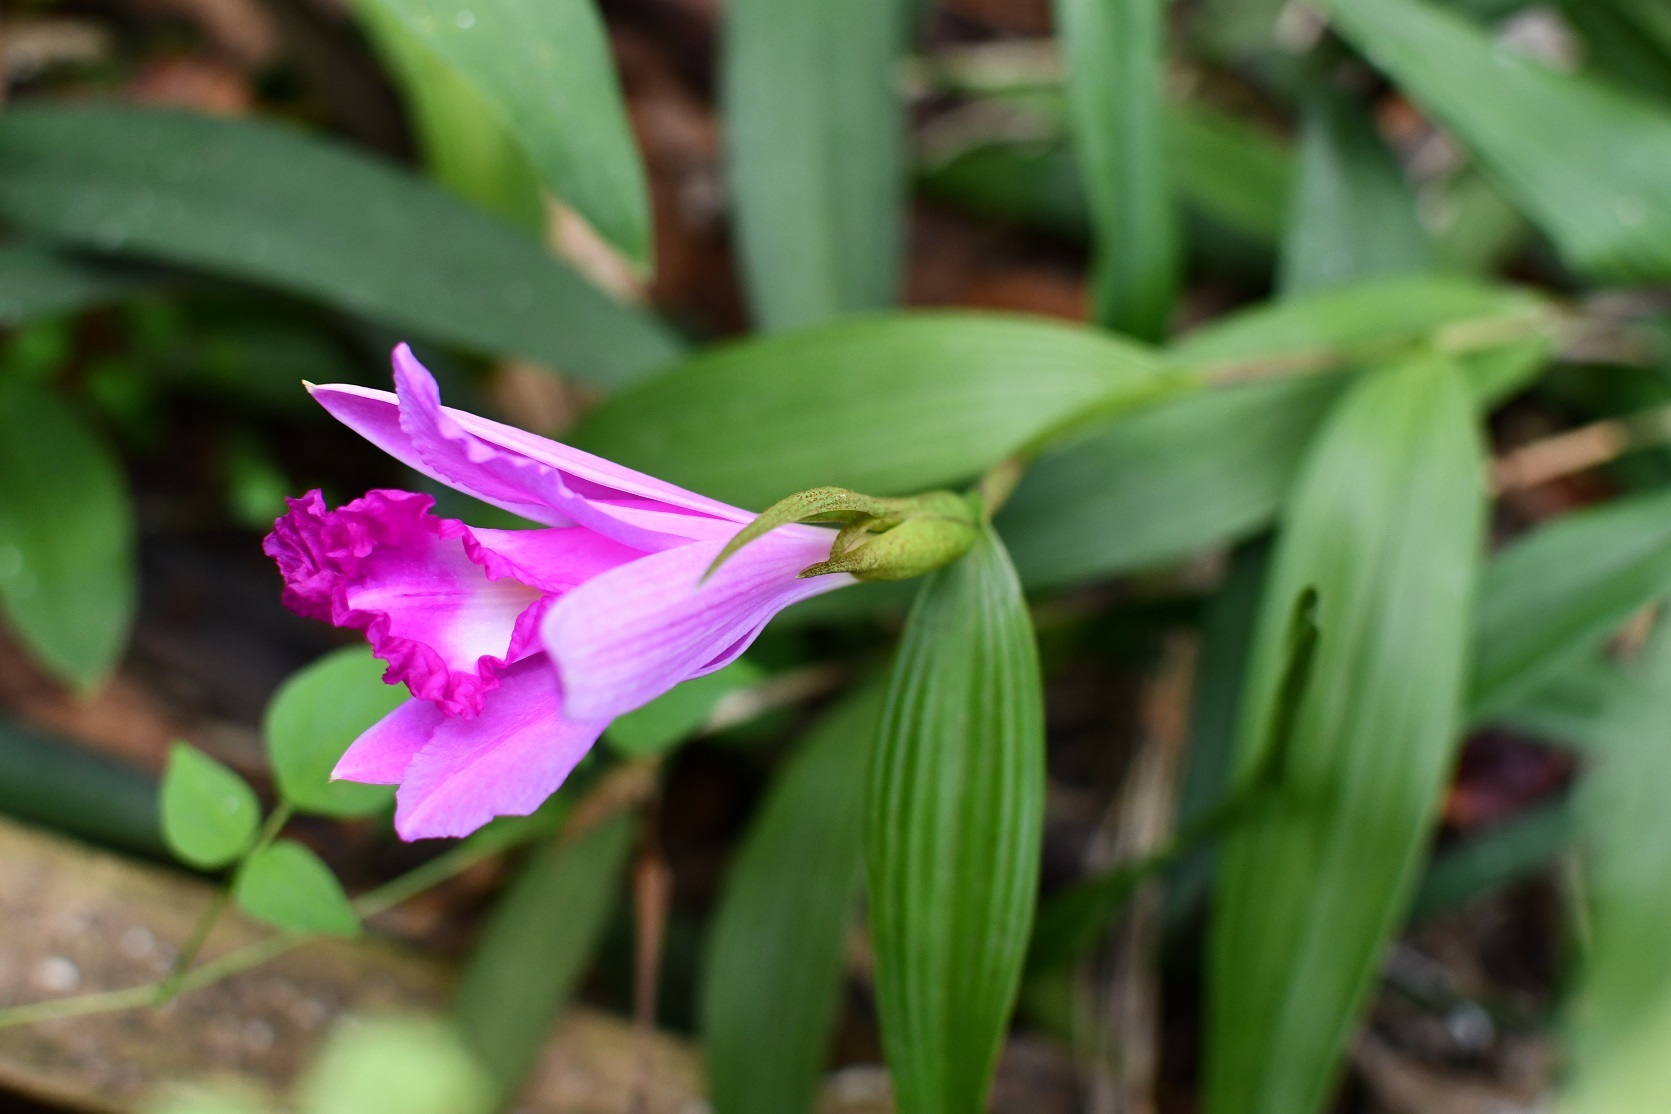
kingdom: Plantae
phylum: Tracheophyta
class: Liliopsida
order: Asparagales
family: Orchidaceae
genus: Sobralia
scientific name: Sobralia macrantha
